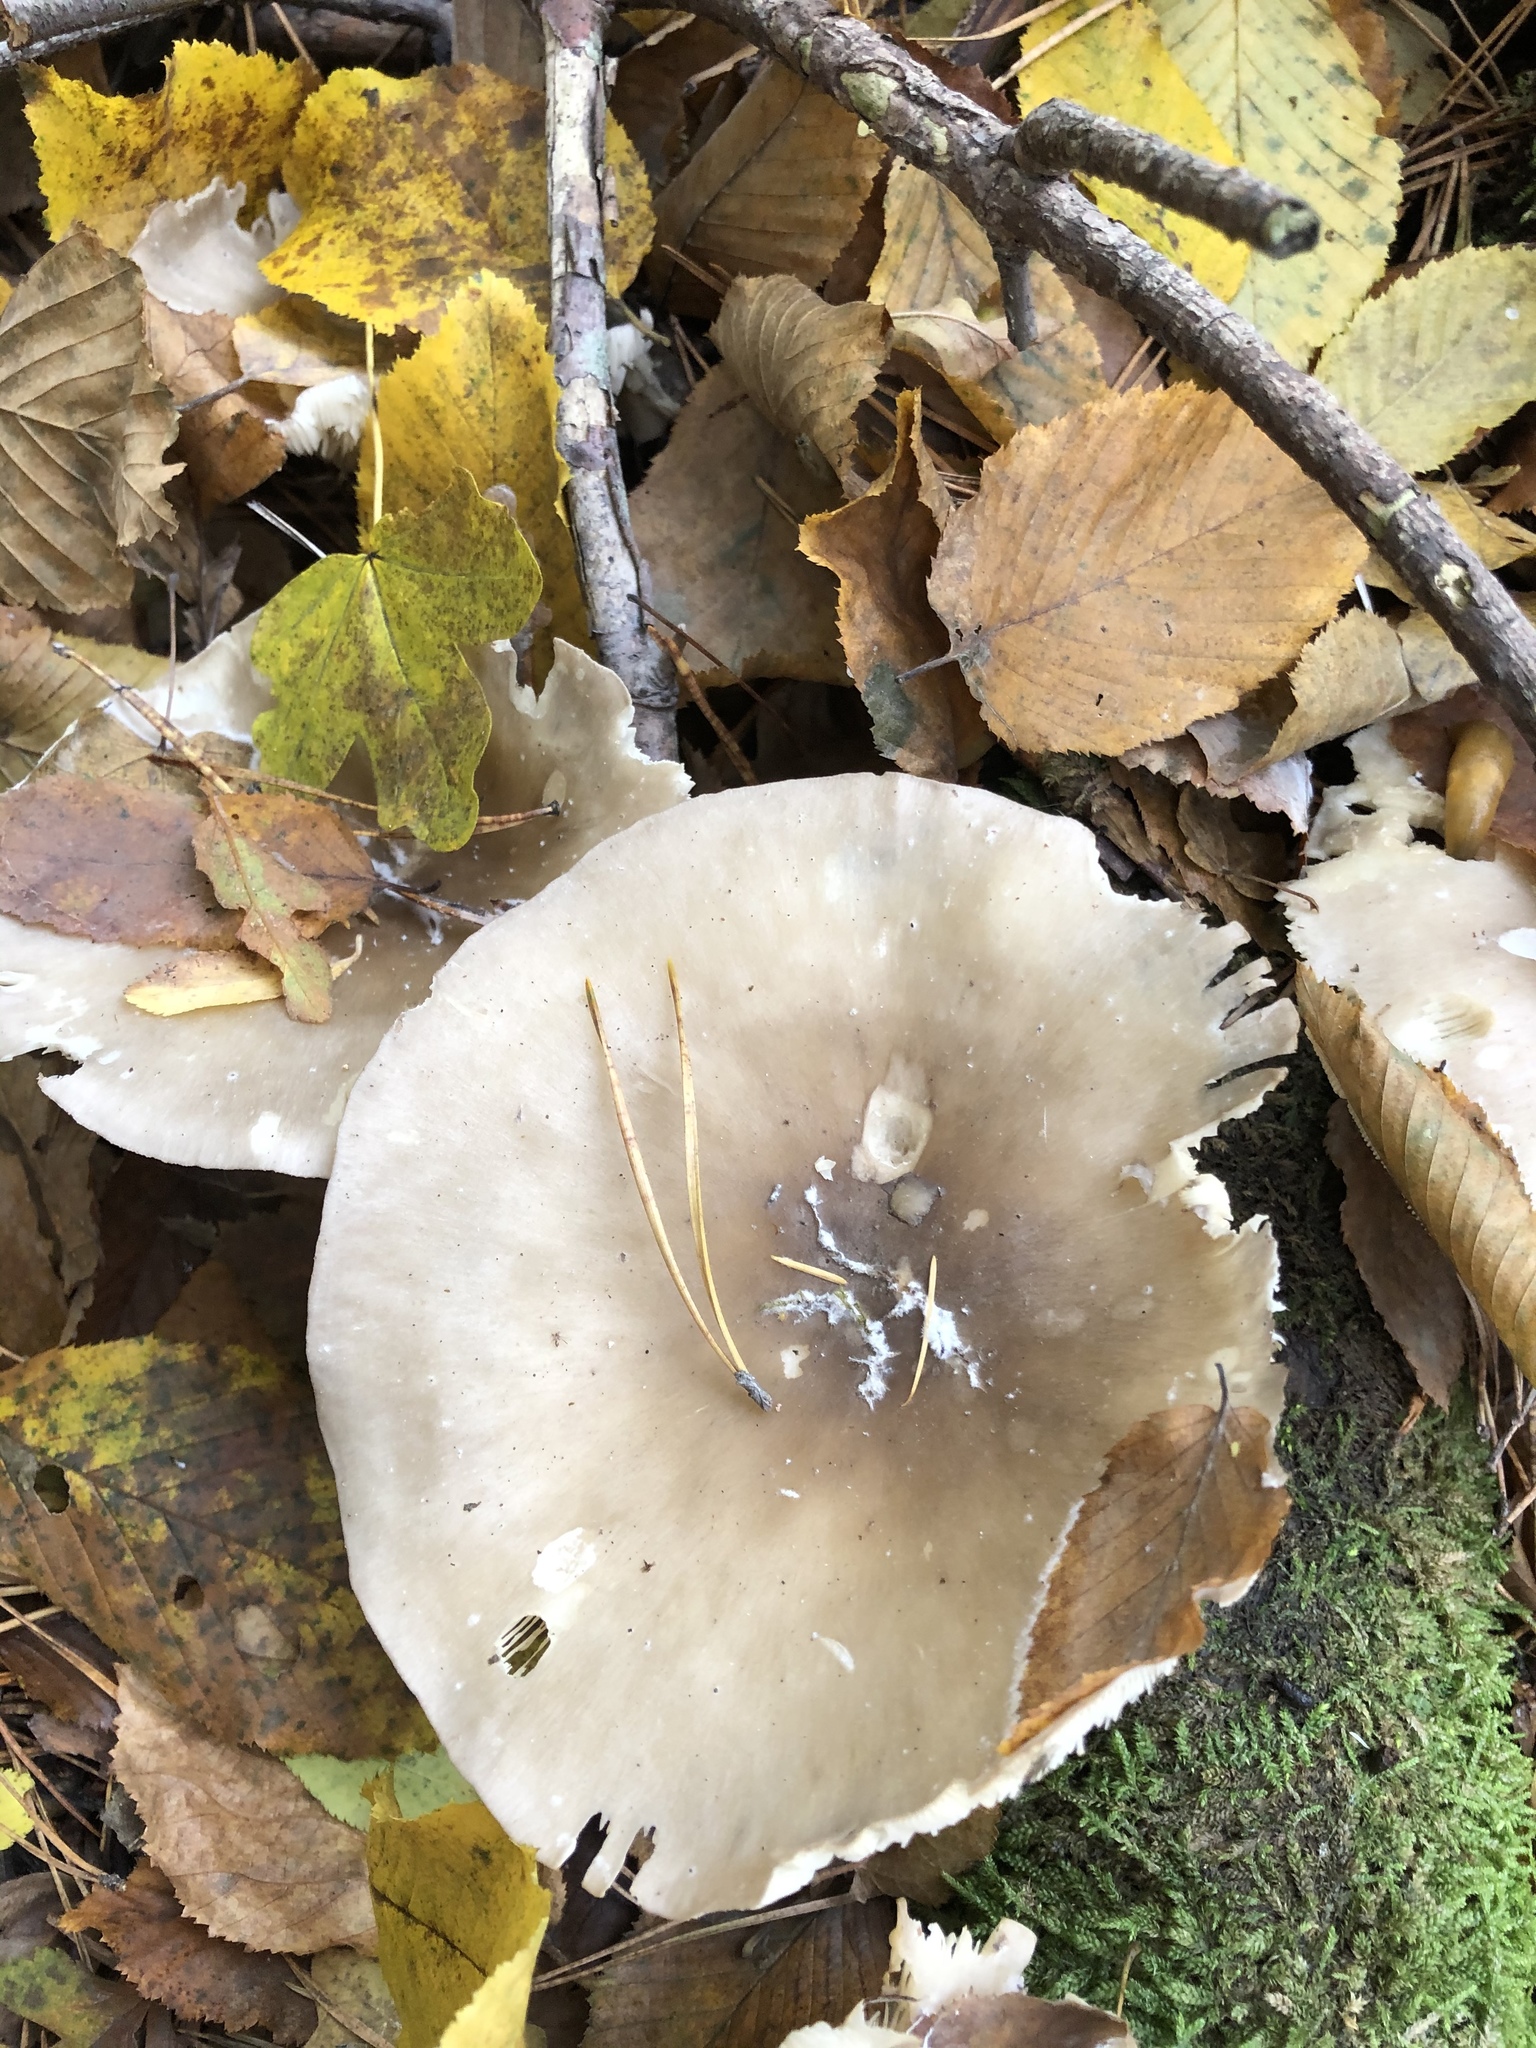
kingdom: Fungi
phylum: Basidiomycota
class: Agaricomycetes
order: Agaricales
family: Tricholomataceae
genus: Clitocybe
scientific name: Clitocybe nebularis
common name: Clouded agaric
